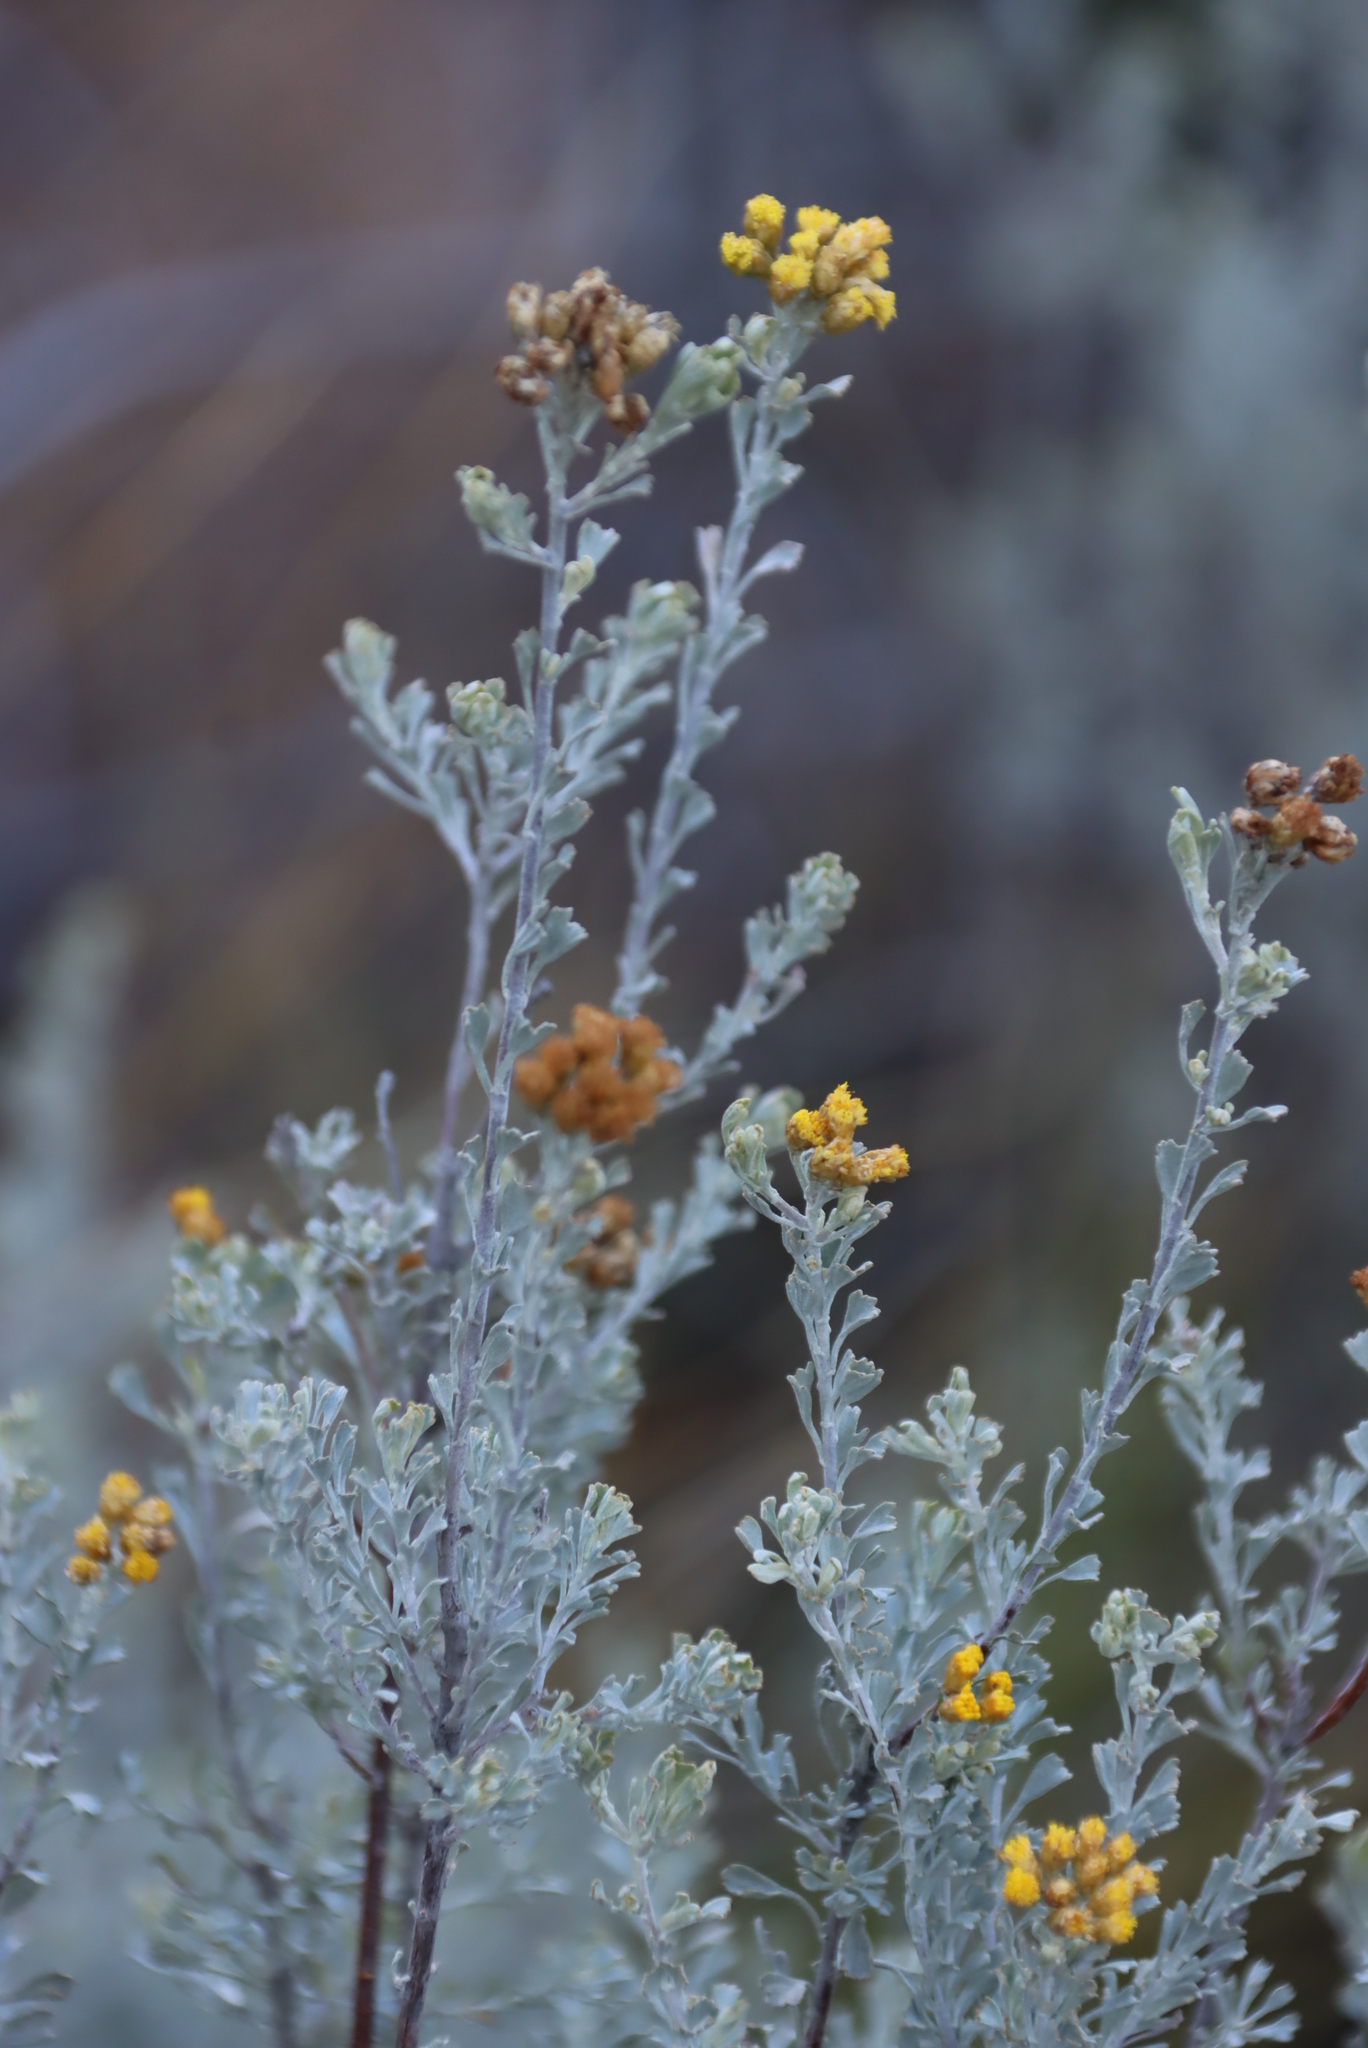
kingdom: Plantae
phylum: Tracheophyta
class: Magnoliopsida
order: Asterales
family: Asteraceae
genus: Athanasia
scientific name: Athanasia trifurcata
